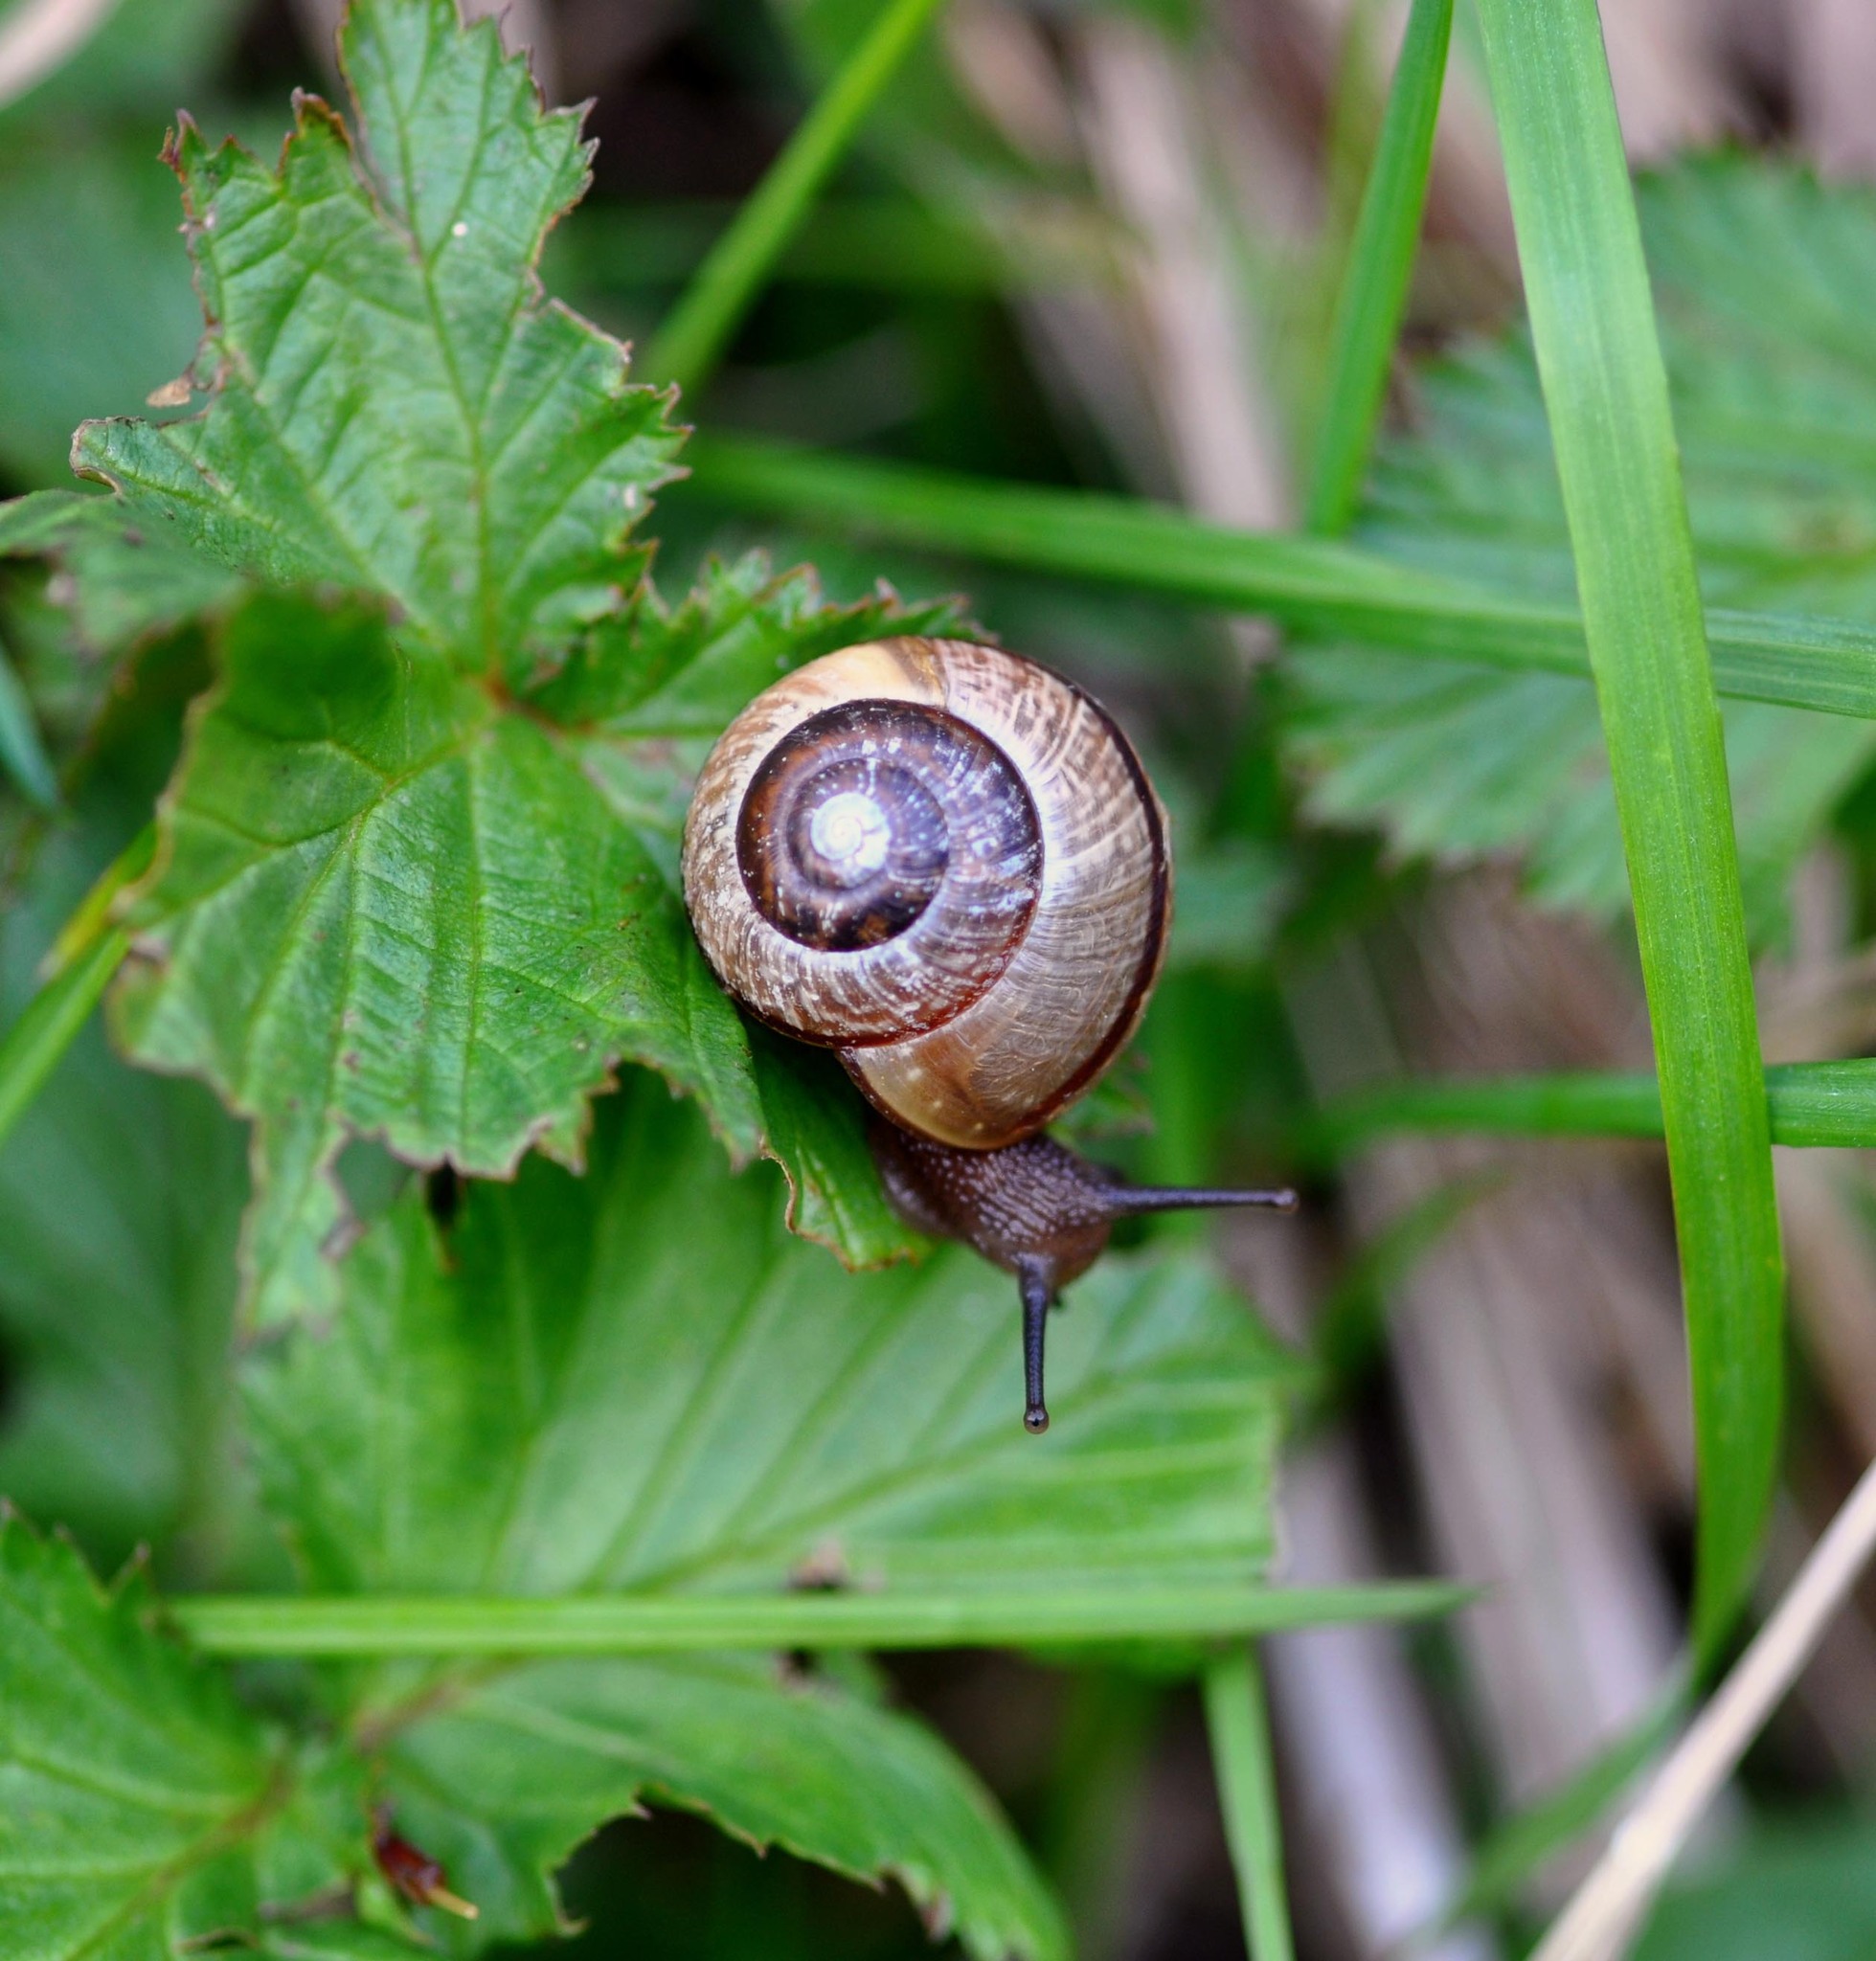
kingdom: Animalia
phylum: Mollusca
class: Gastropoda
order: Stylommatophora
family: Helicidae
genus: Arianta
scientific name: Arianta arbustorum
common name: Copse snail
